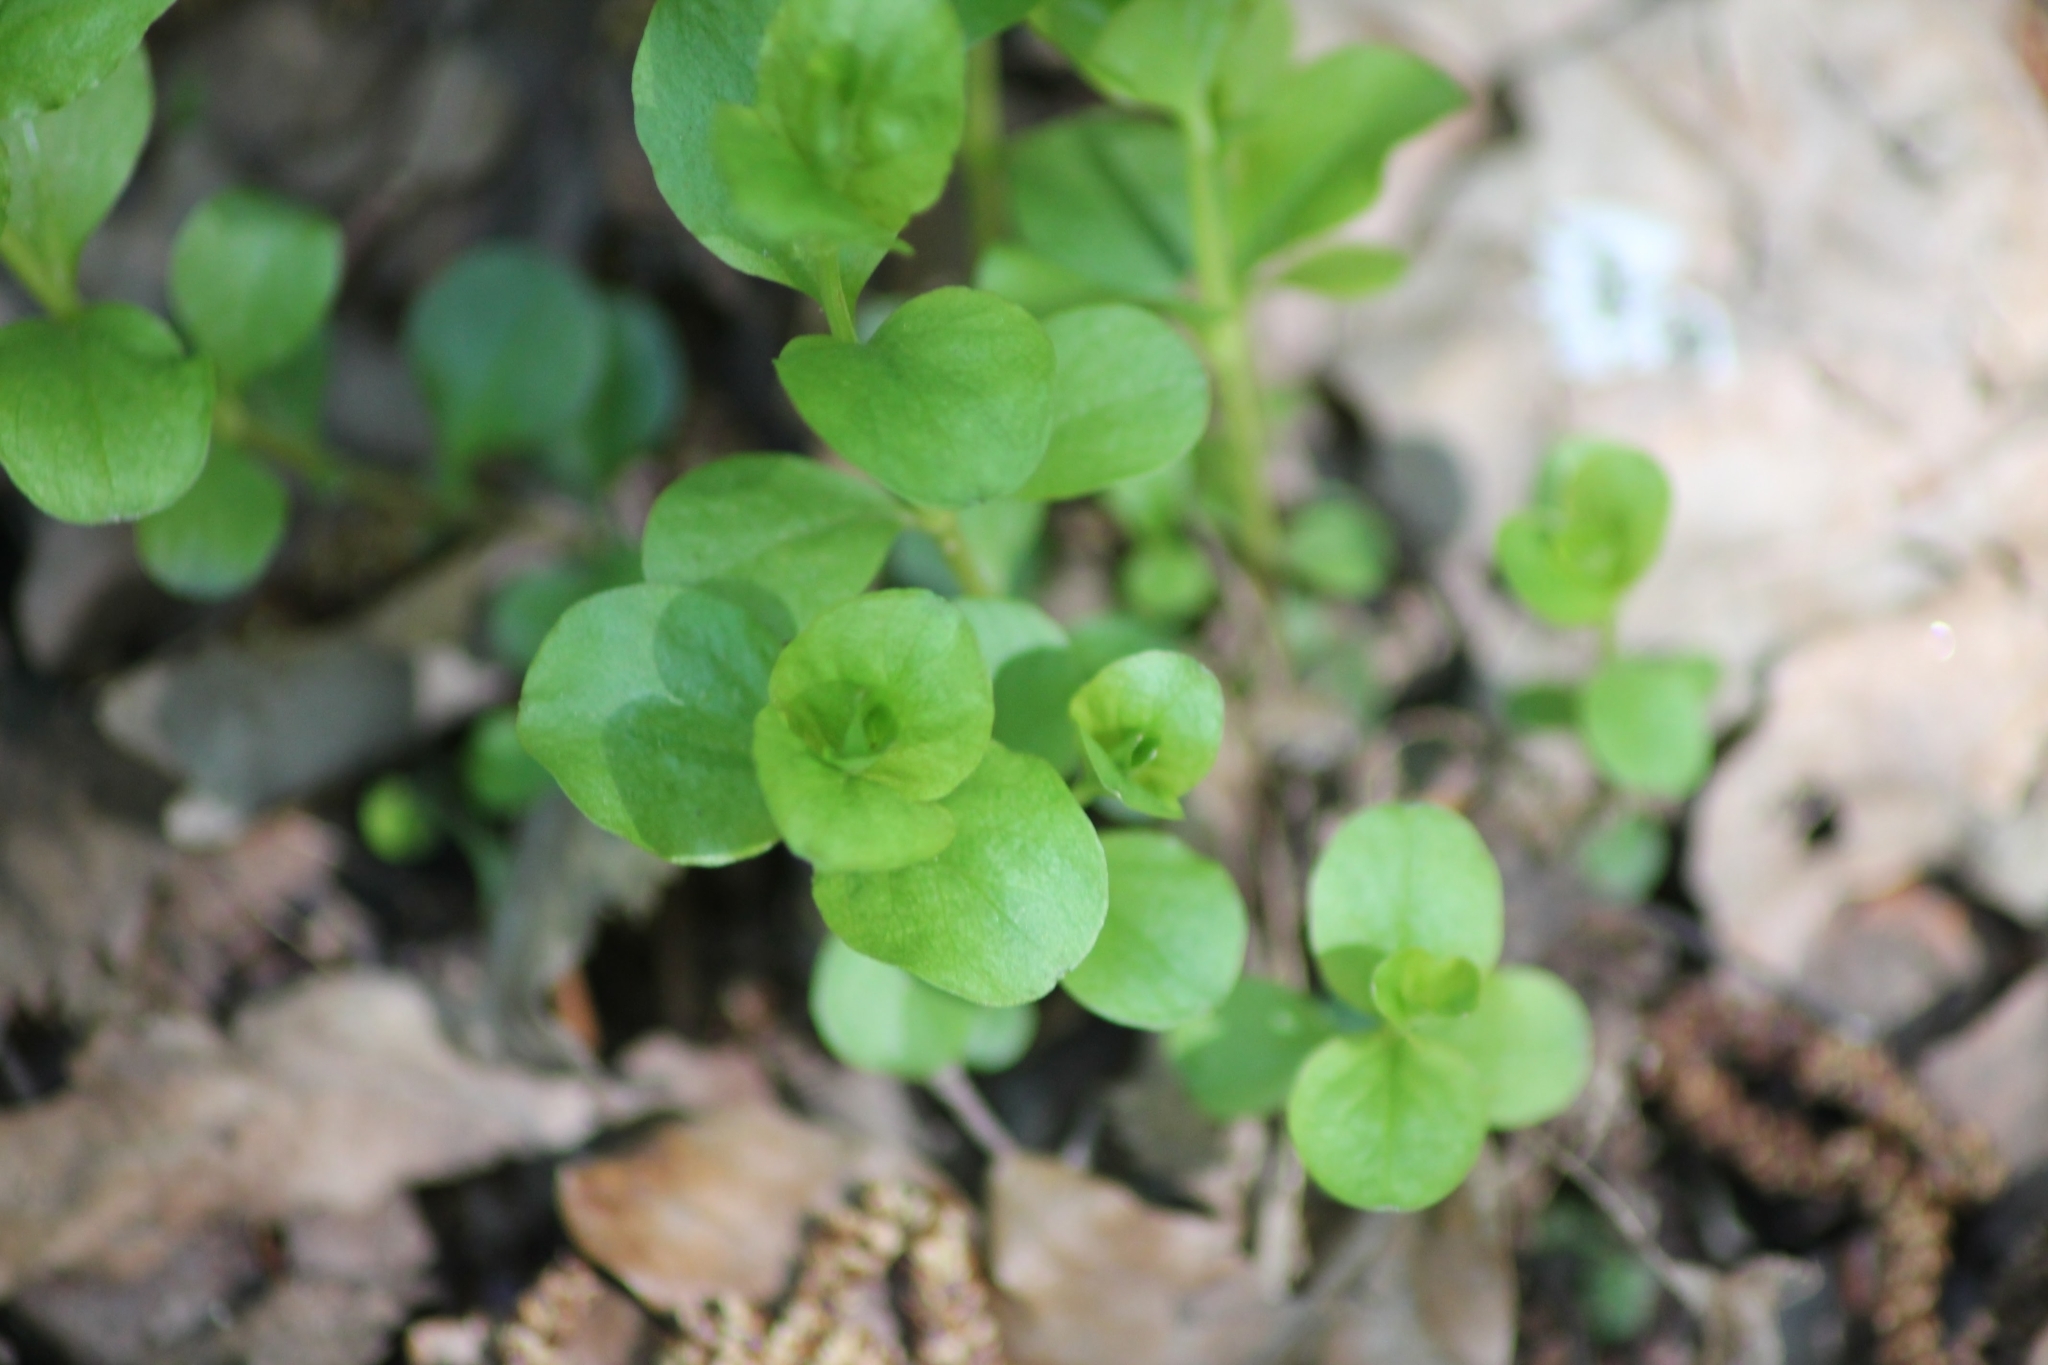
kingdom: Plantae
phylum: Tracheophyta
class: Magnoliopsida
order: Ericales
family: Primulaceae
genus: Lysimachia
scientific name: Lysimachia nummularia
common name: Moneywort
